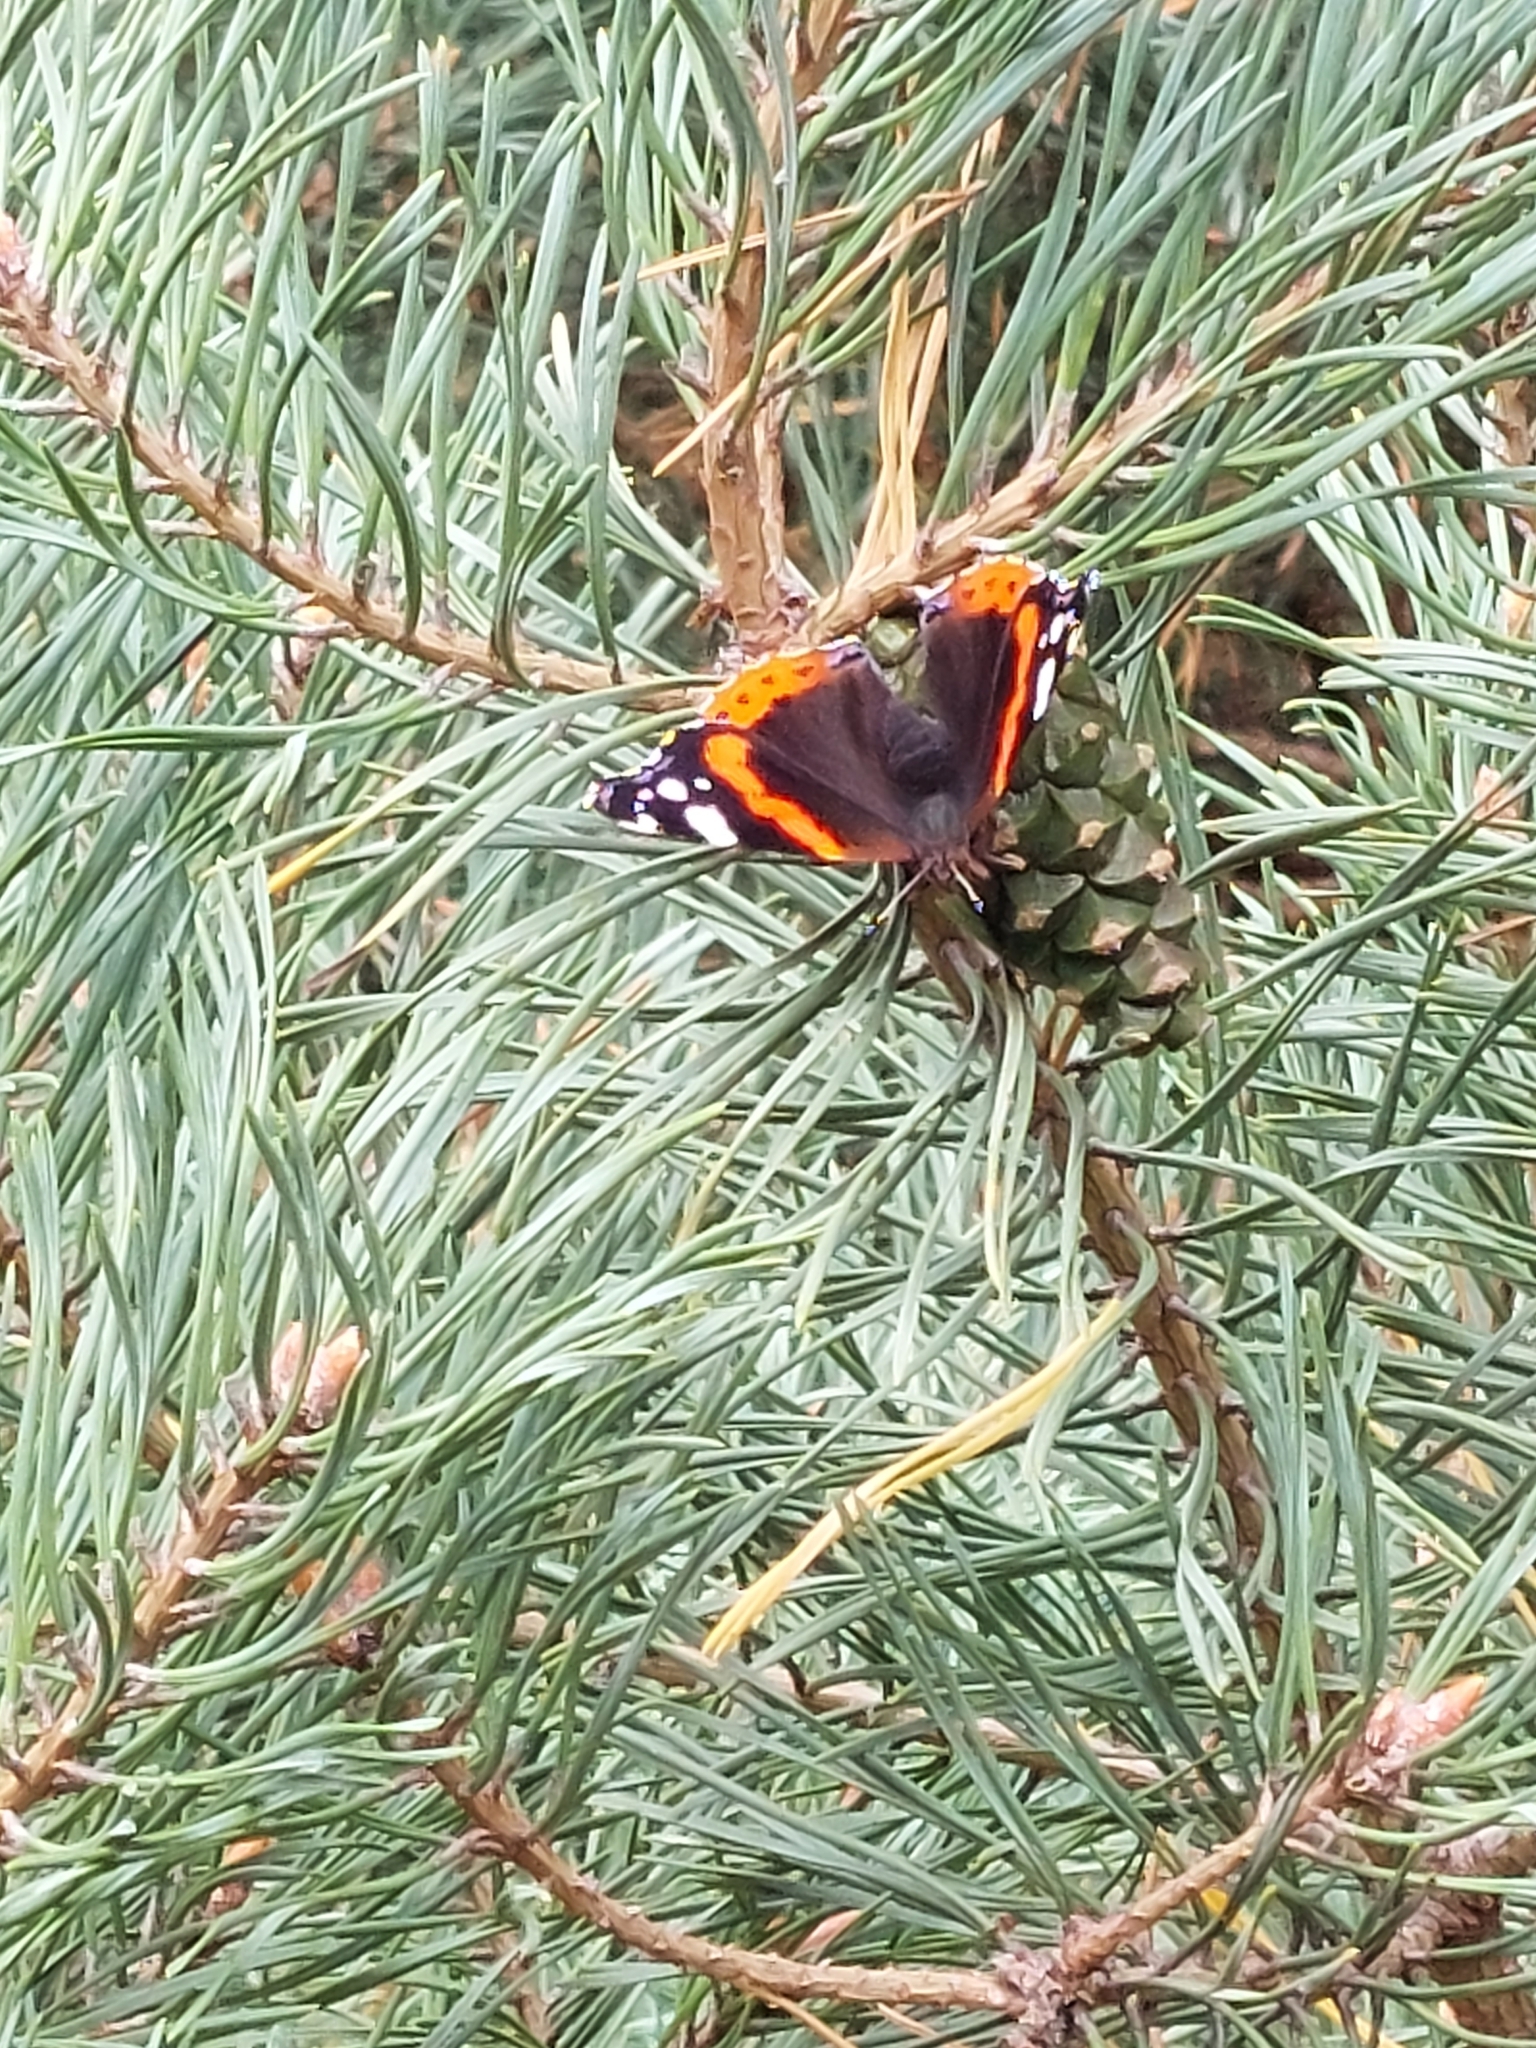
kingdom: Animalia
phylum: Arthropoda
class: Insecta
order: Lepidoptera
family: Nymphalidae
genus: Vanessa
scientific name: Vanessa atalanta
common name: Red admiral
